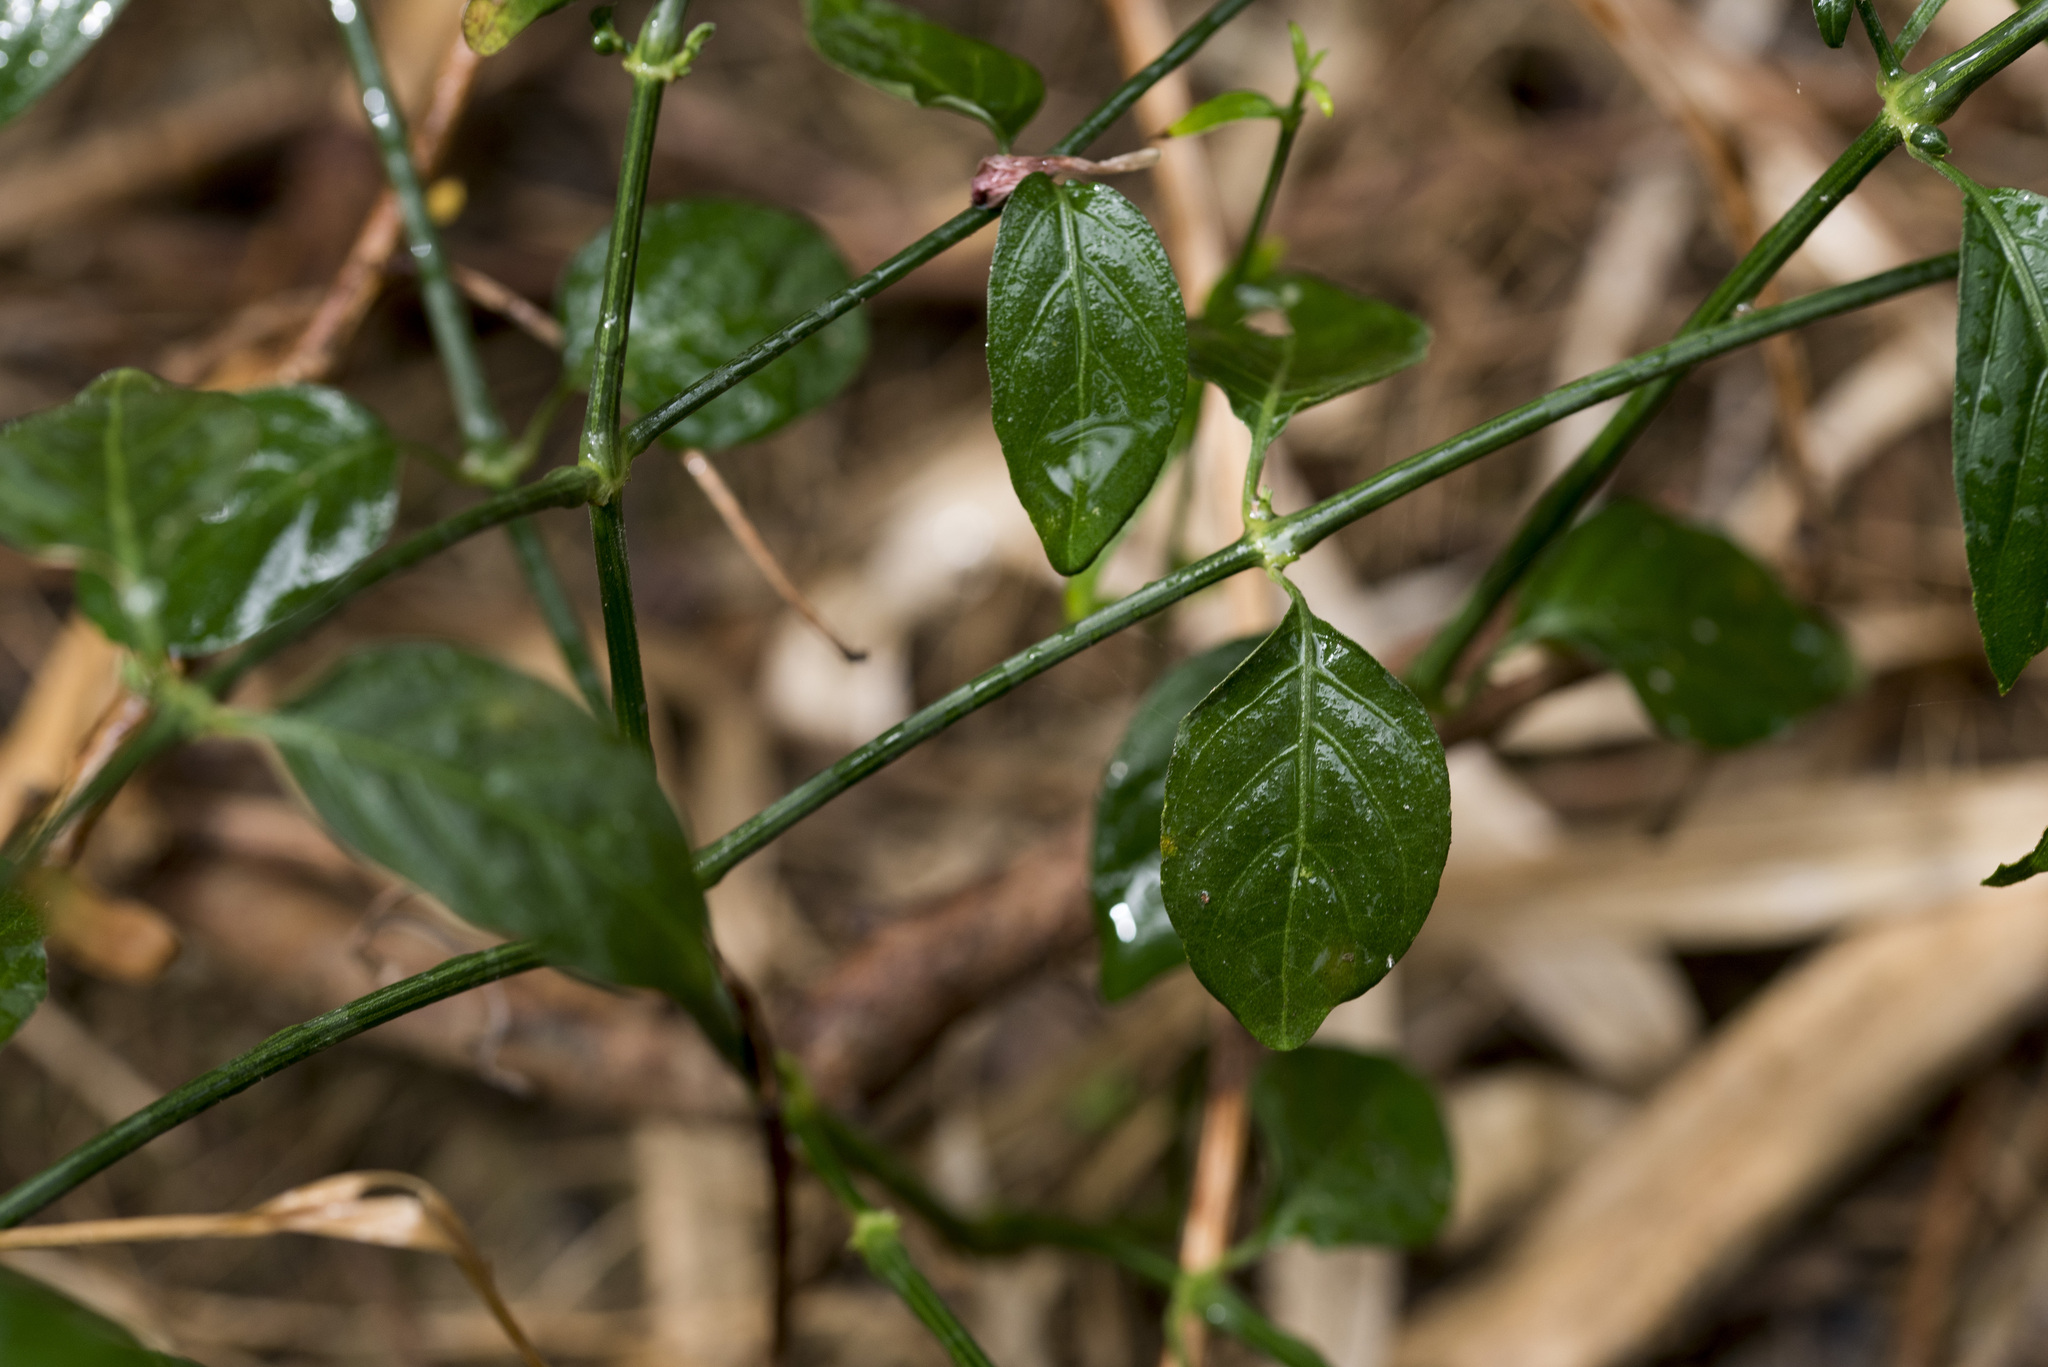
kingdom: Plantae
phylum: Tracheophyta
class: Magnoliopsida
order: Lamiales
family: Acanthaceae
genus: Hypoestes
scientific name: Hypoestes cumingiana
